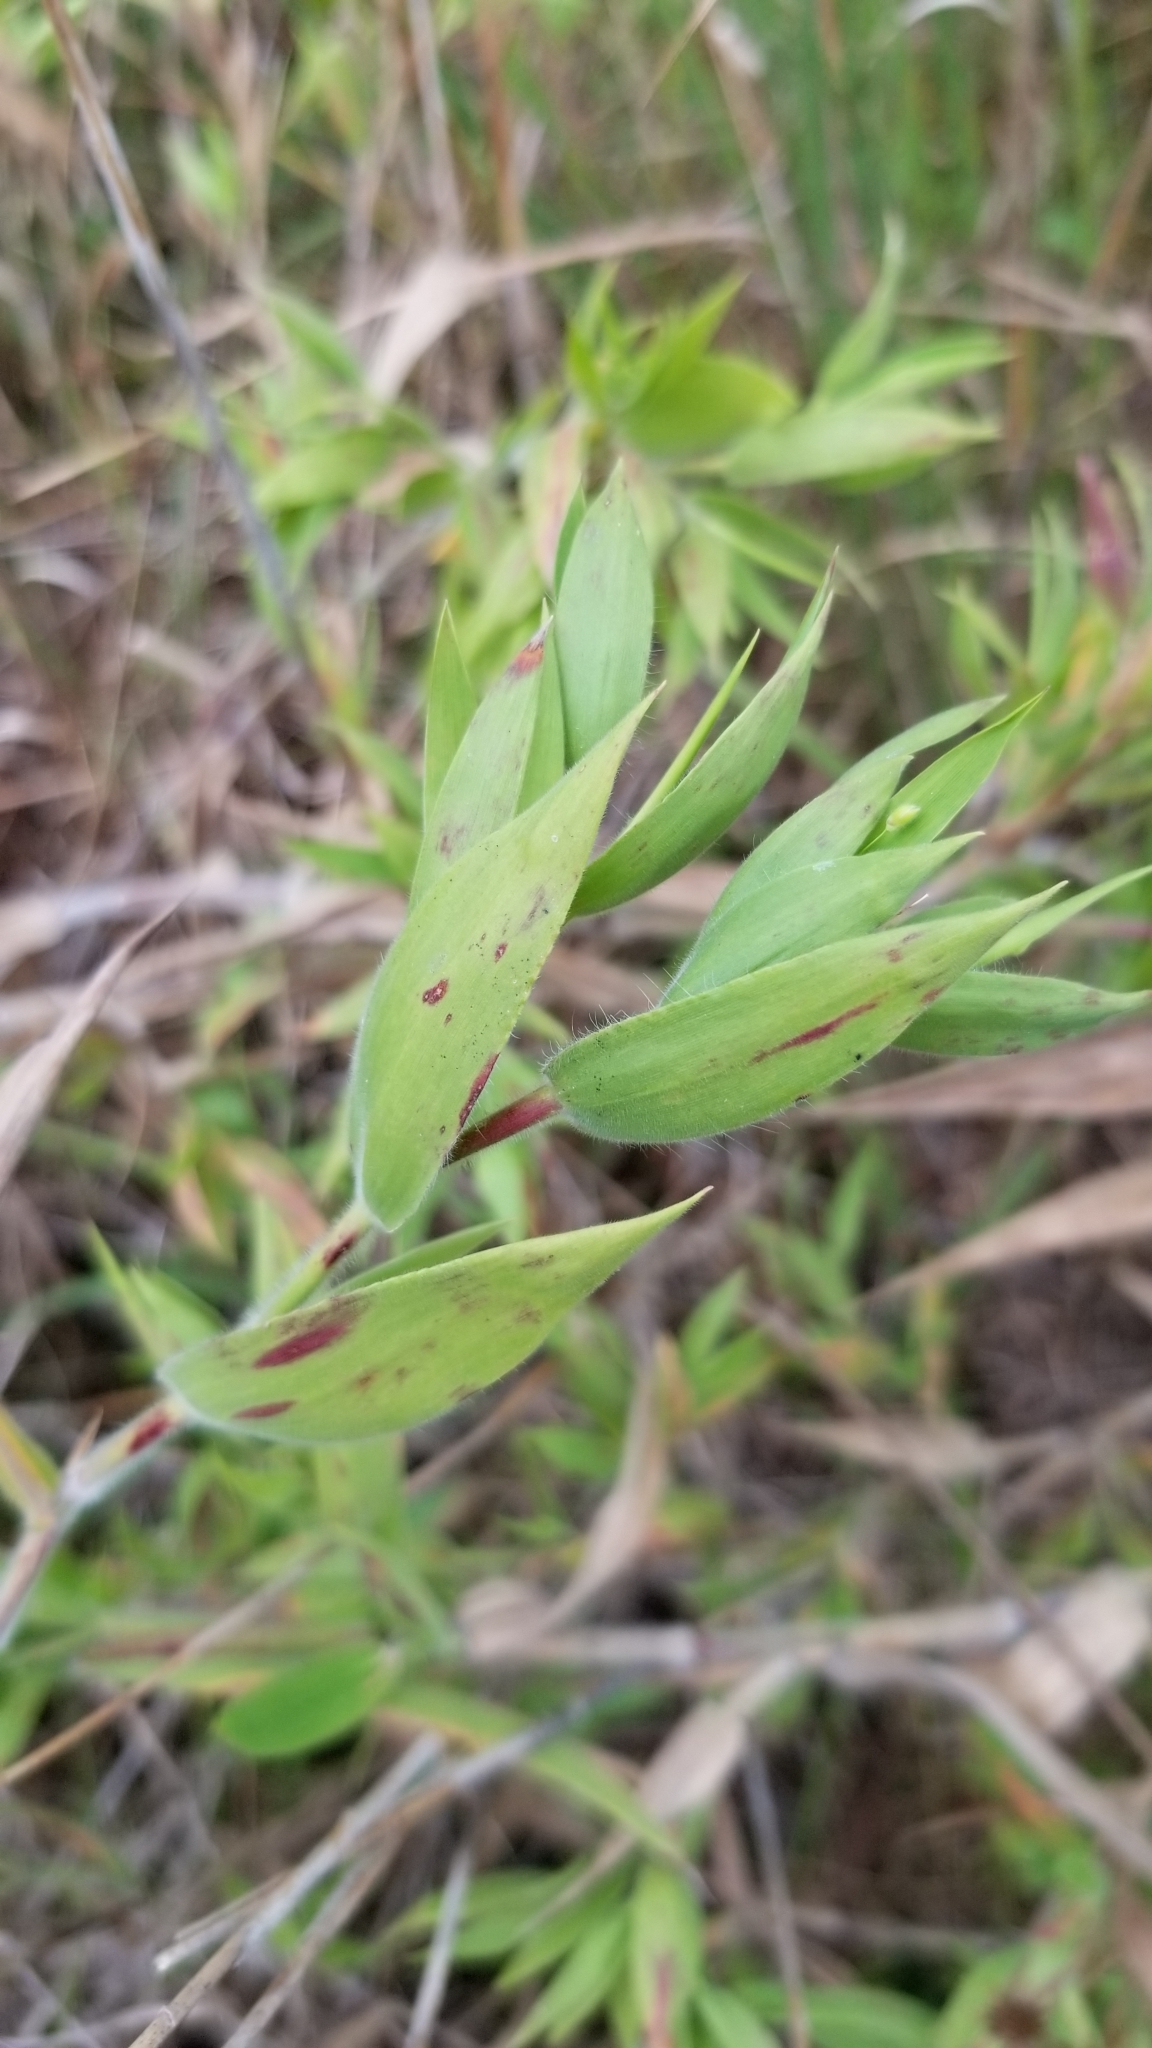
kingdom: Plantae
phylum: Tracheophyta
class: Liliopsida
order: Poales
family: Poaceae
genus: Dichanthelium
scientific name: Dichanthelium scoparium
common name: Velvety panic grass
